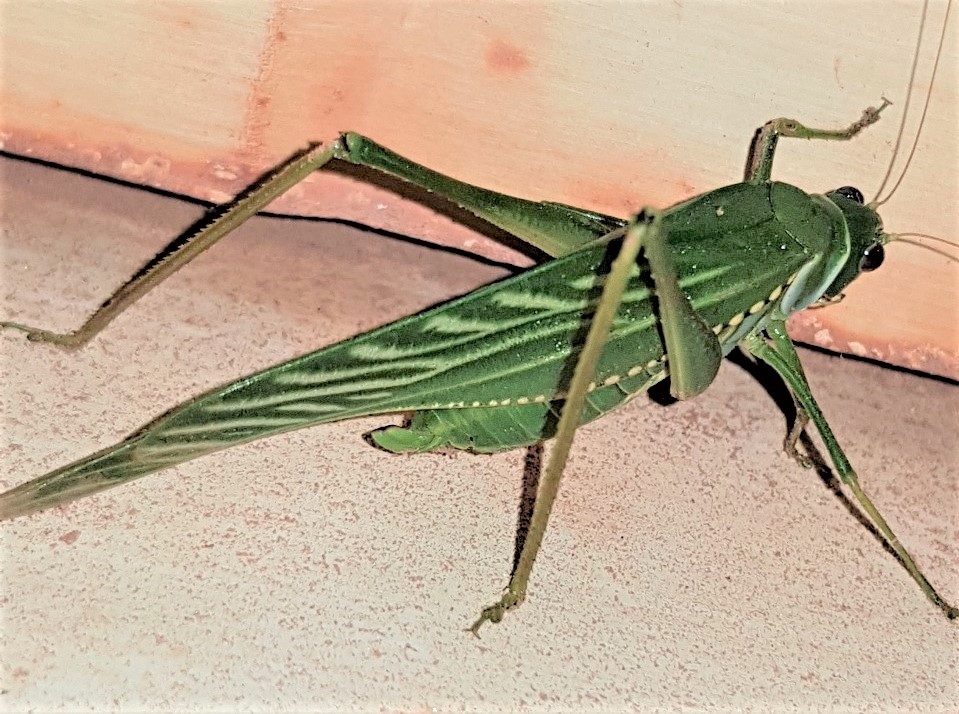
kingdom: Animalia
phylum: Arthropoda
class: Insecta
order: Orthoptera
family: Tettigoniidae
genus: Microcentrum
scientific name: Microcentrum xavieri
